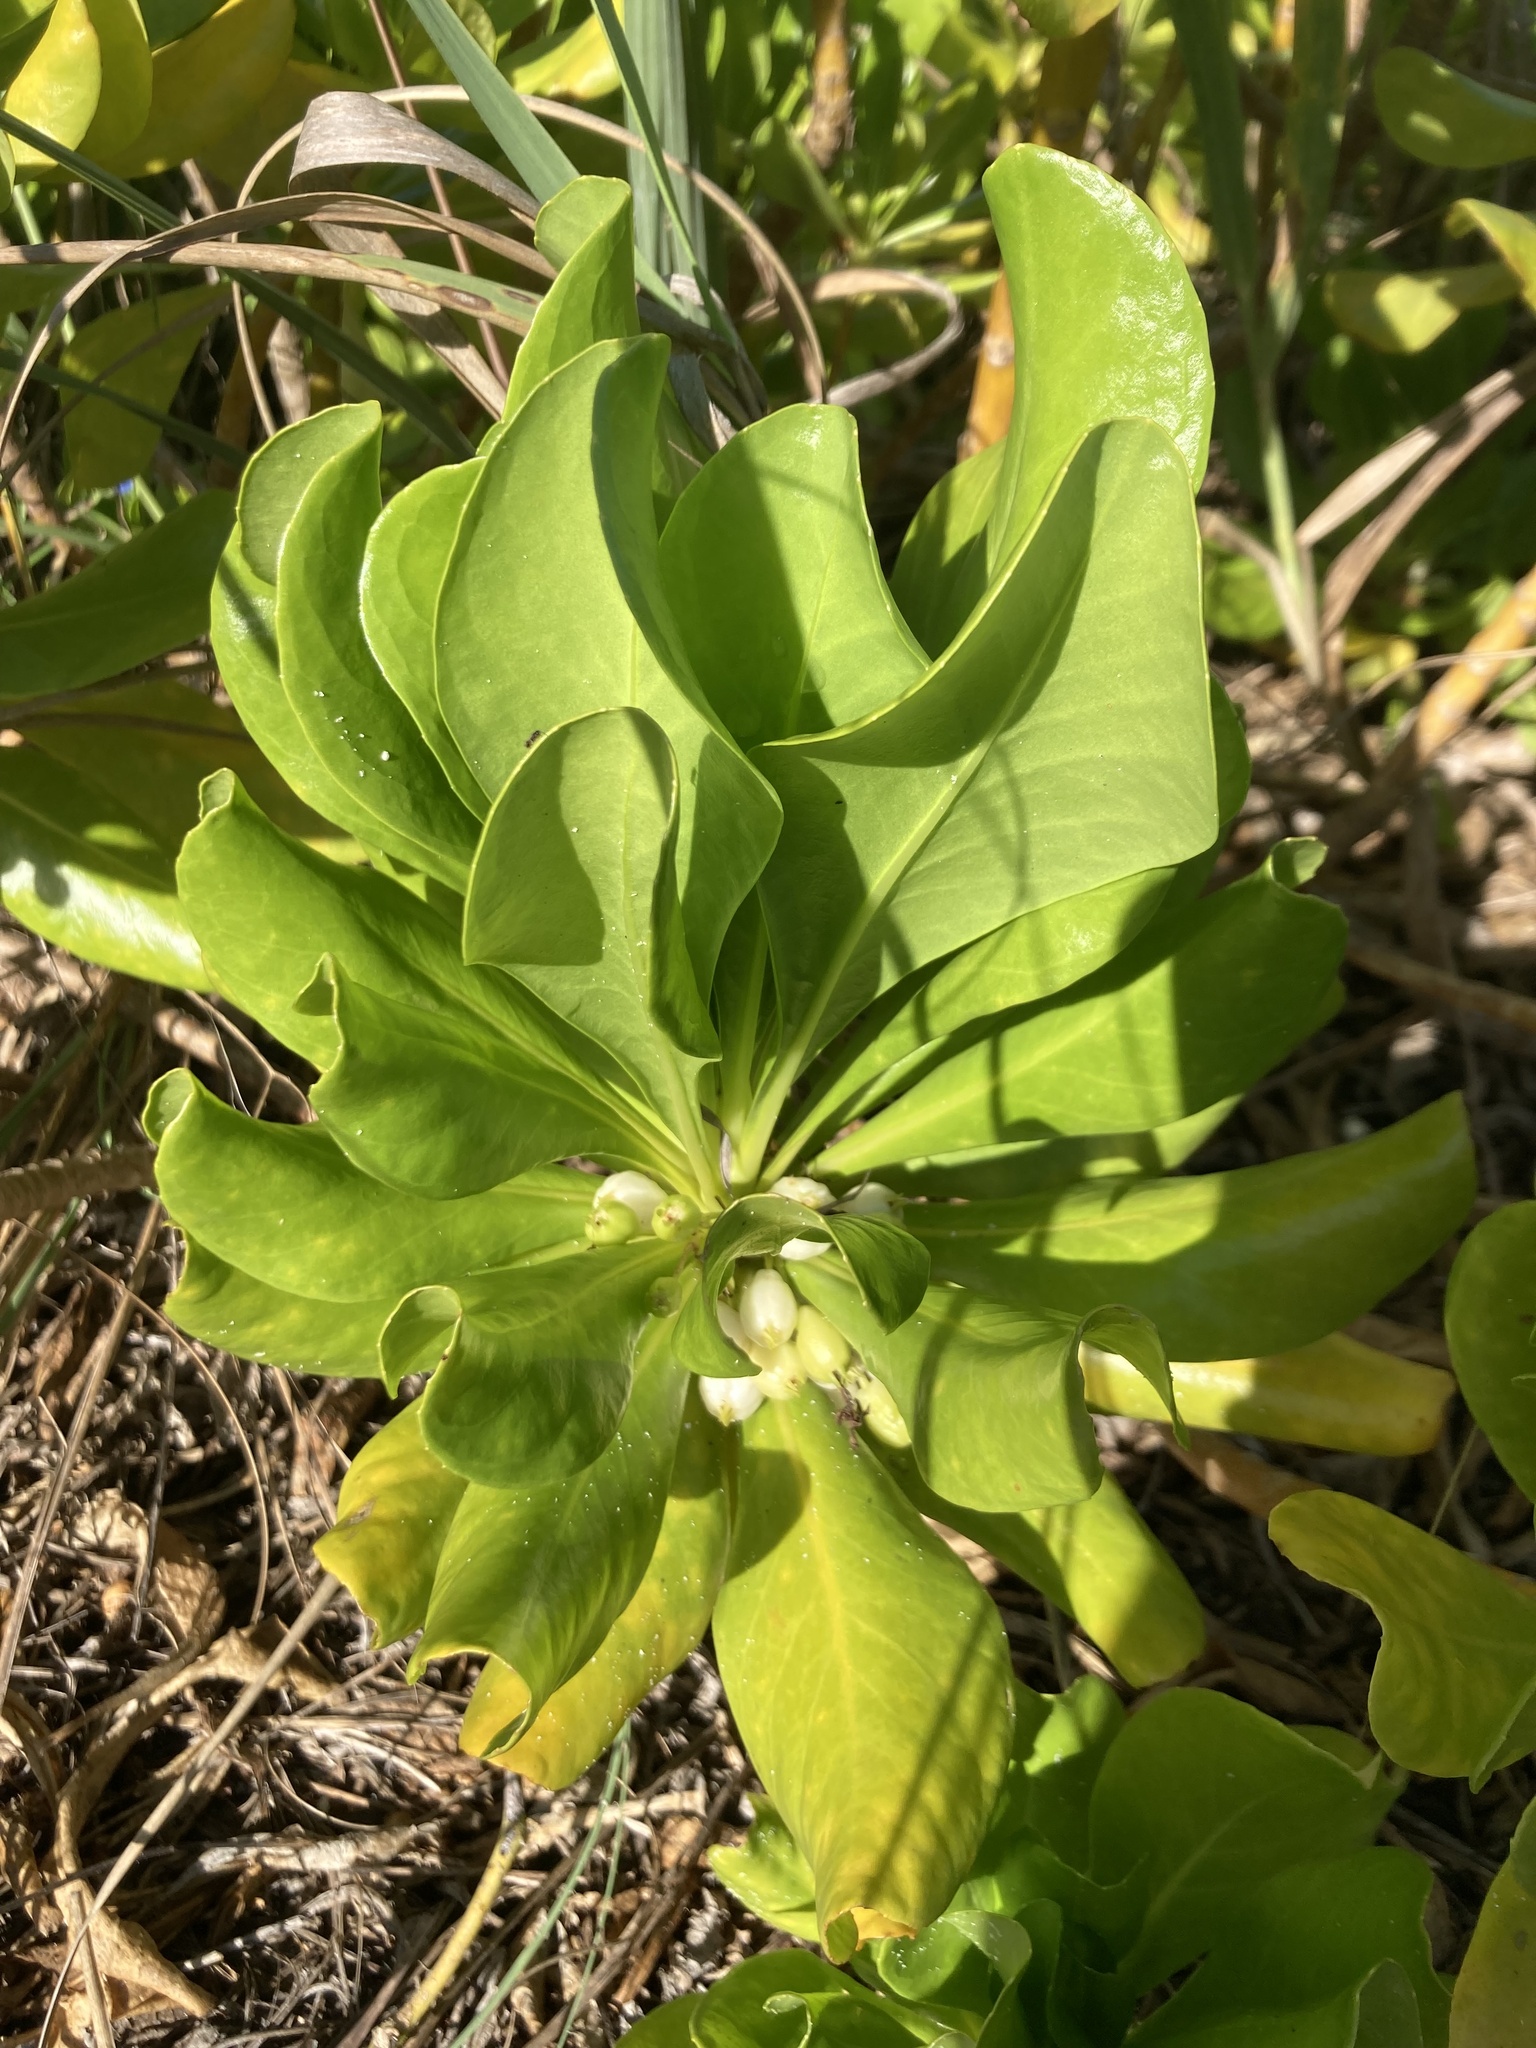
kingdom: Plantae
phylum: Tracheophyta
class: Magnoliopsida
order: Asterales
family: Goodeniaceae
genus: Scaevola
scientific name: Scaevola taccada
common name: Sea lettucetree
